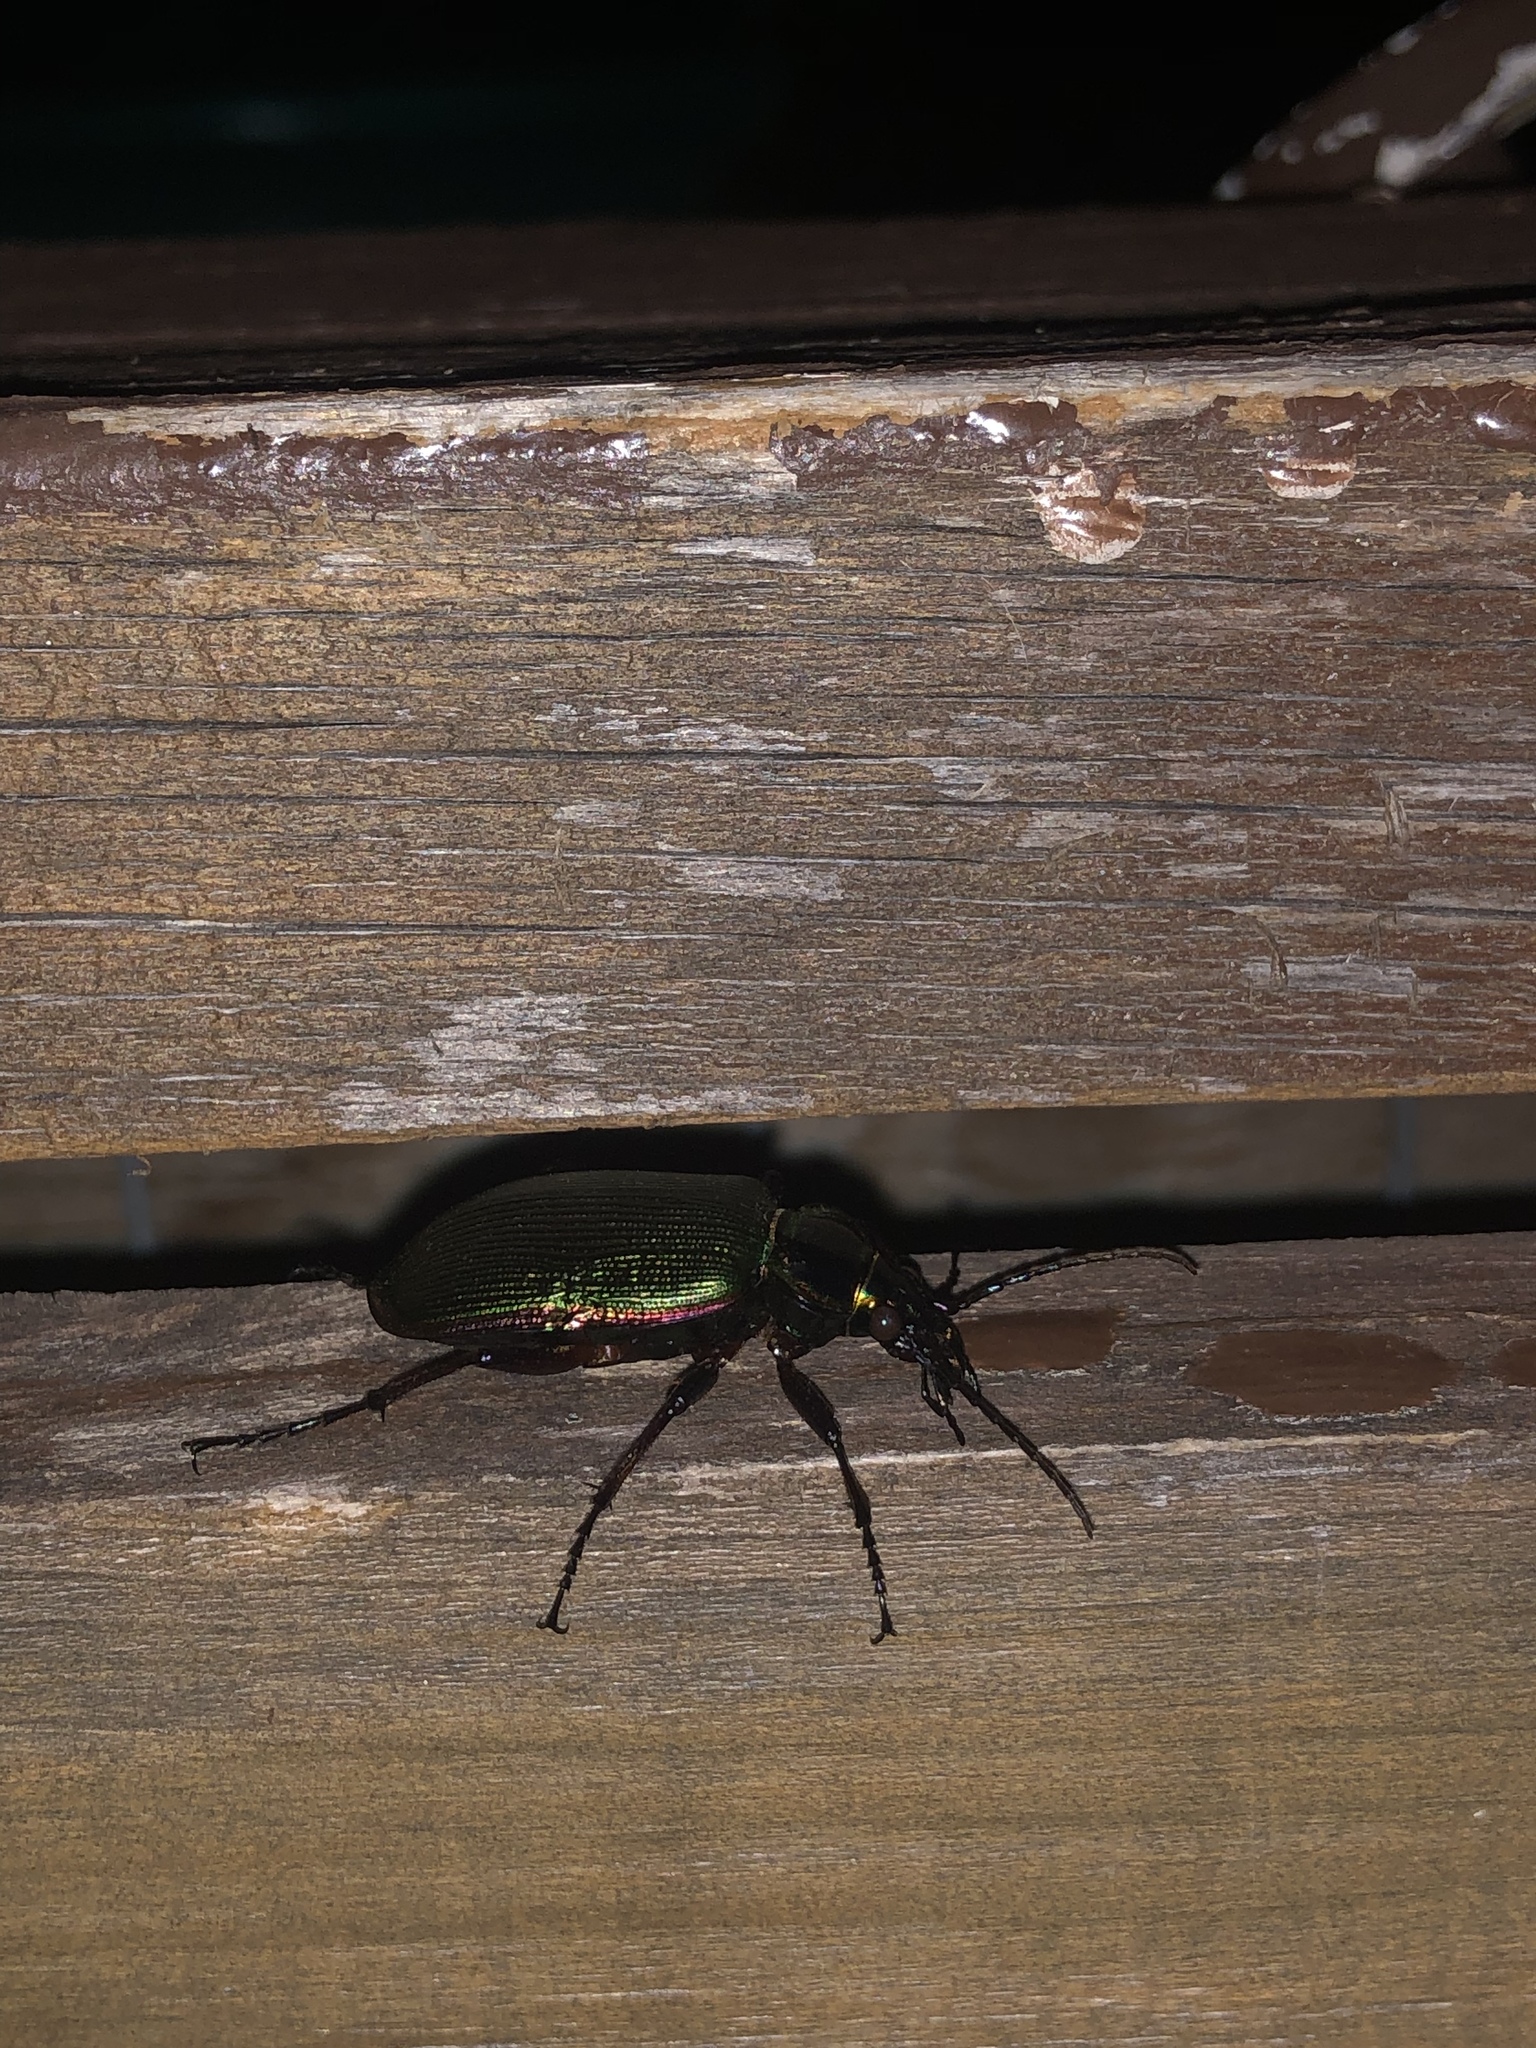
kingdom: Animalia
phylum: Arthropoda
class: Insecta
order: Coleoptera
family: Carabidae
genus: Calosoma
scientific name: Calosoma scrutator
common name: Fiery searcher beetle
